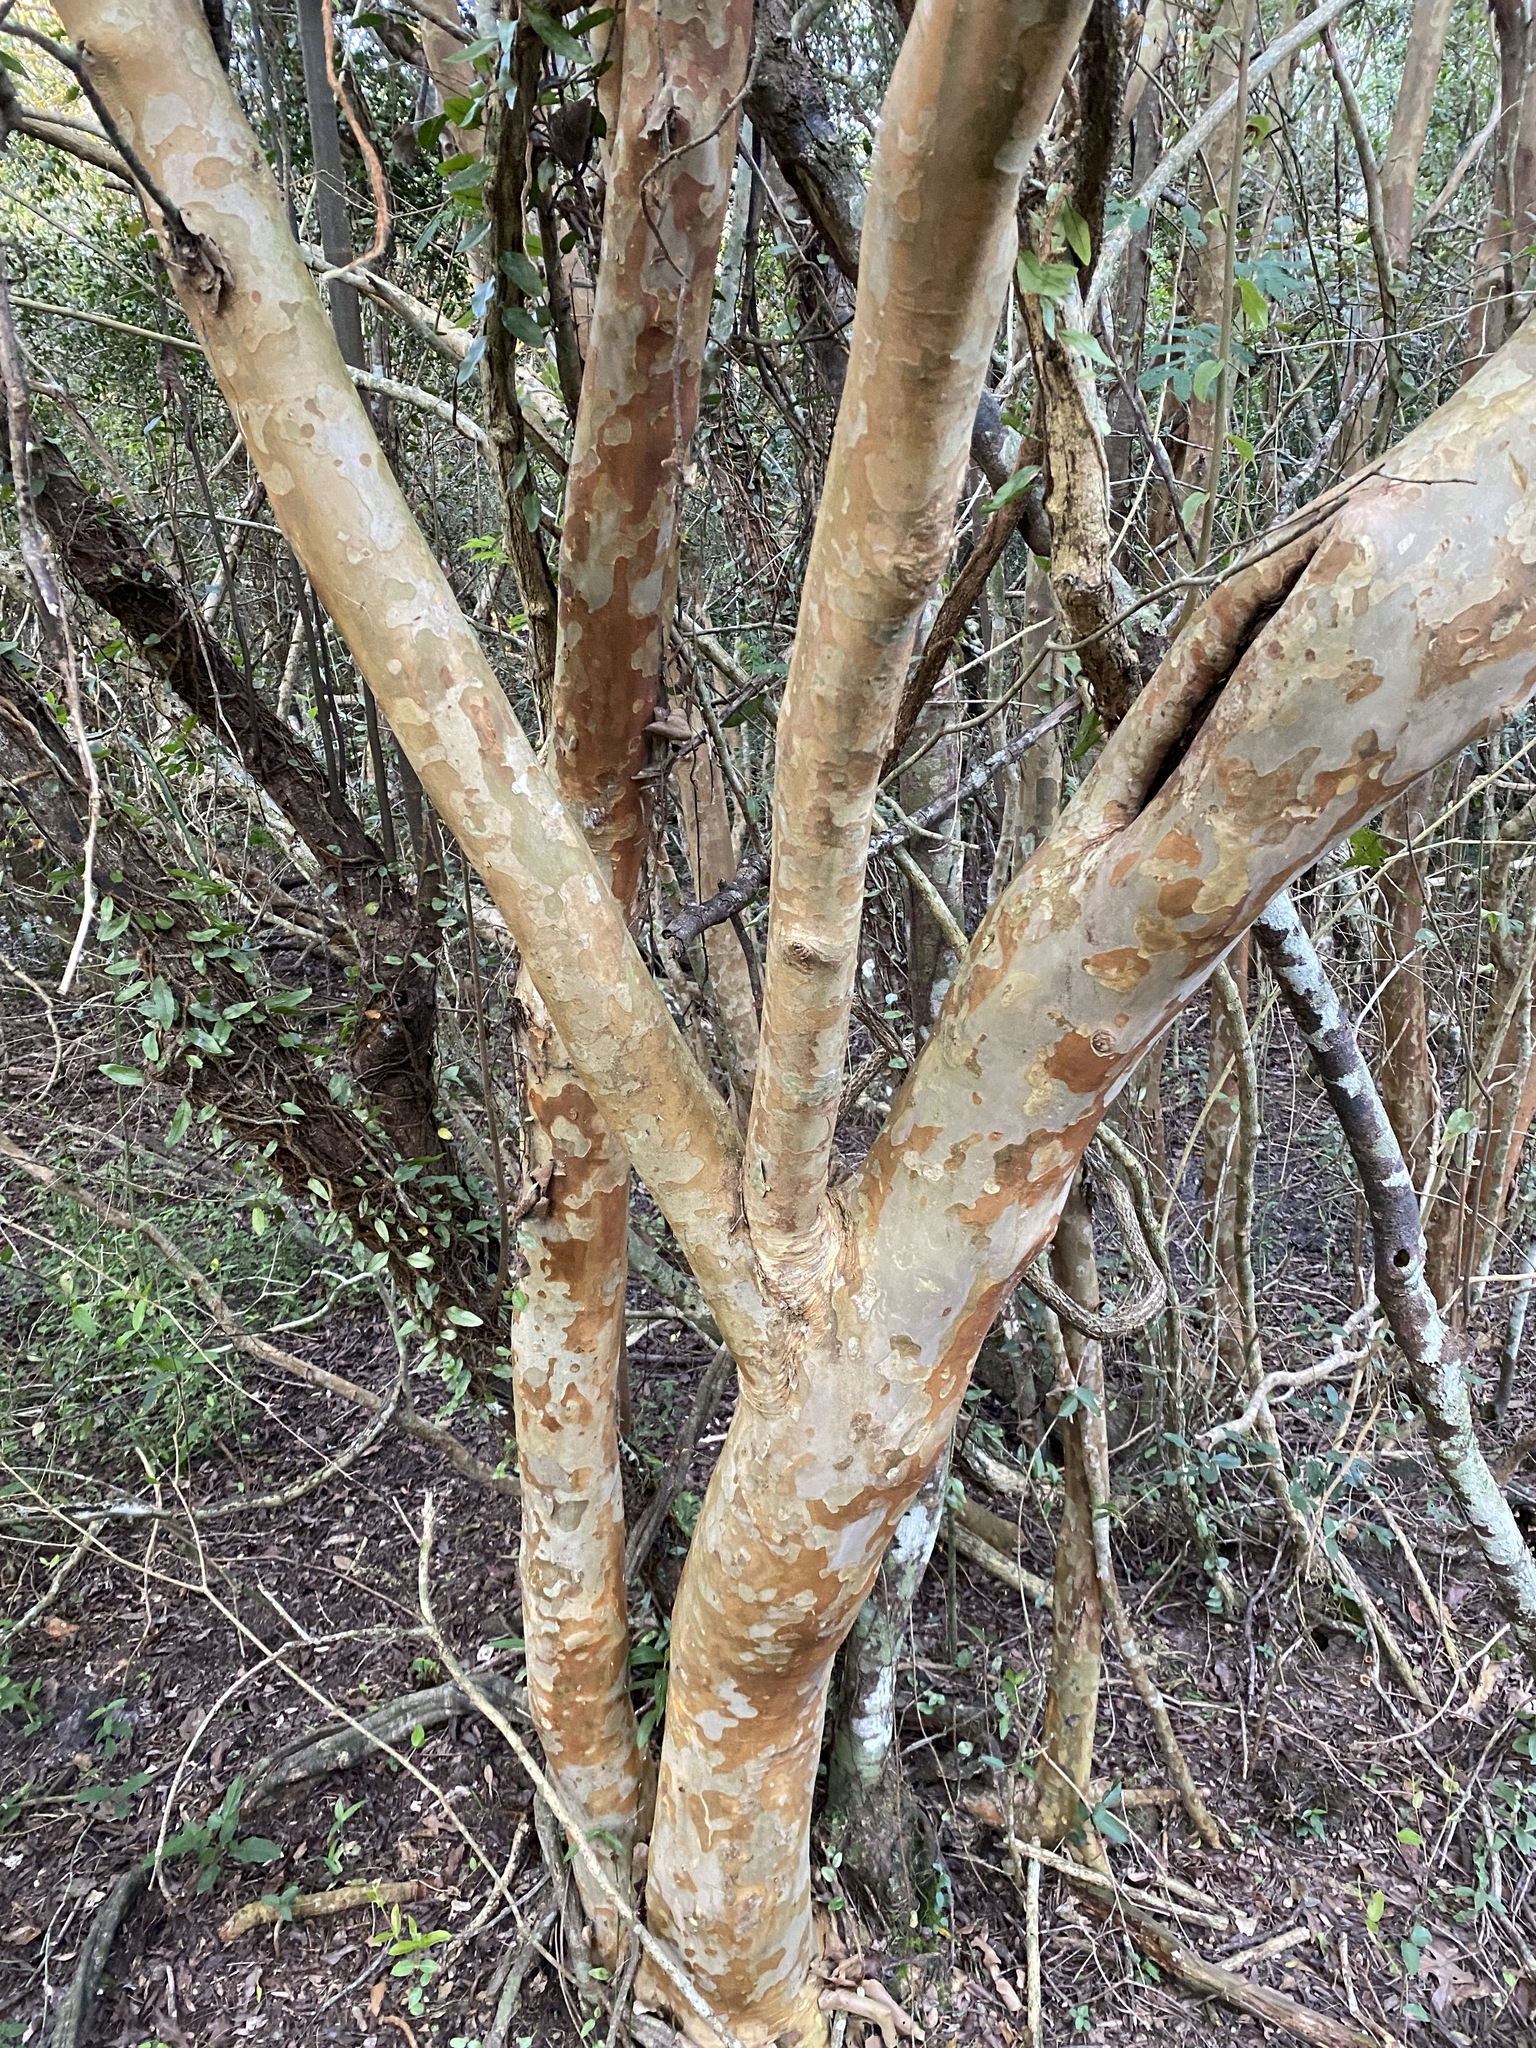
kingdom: Plantae
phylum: Tracheophyta
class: Magnoliopsida
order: Myrtales
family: Myrtaceae
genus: Myrcianthes
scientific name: Myrcianthes cisplatensis
